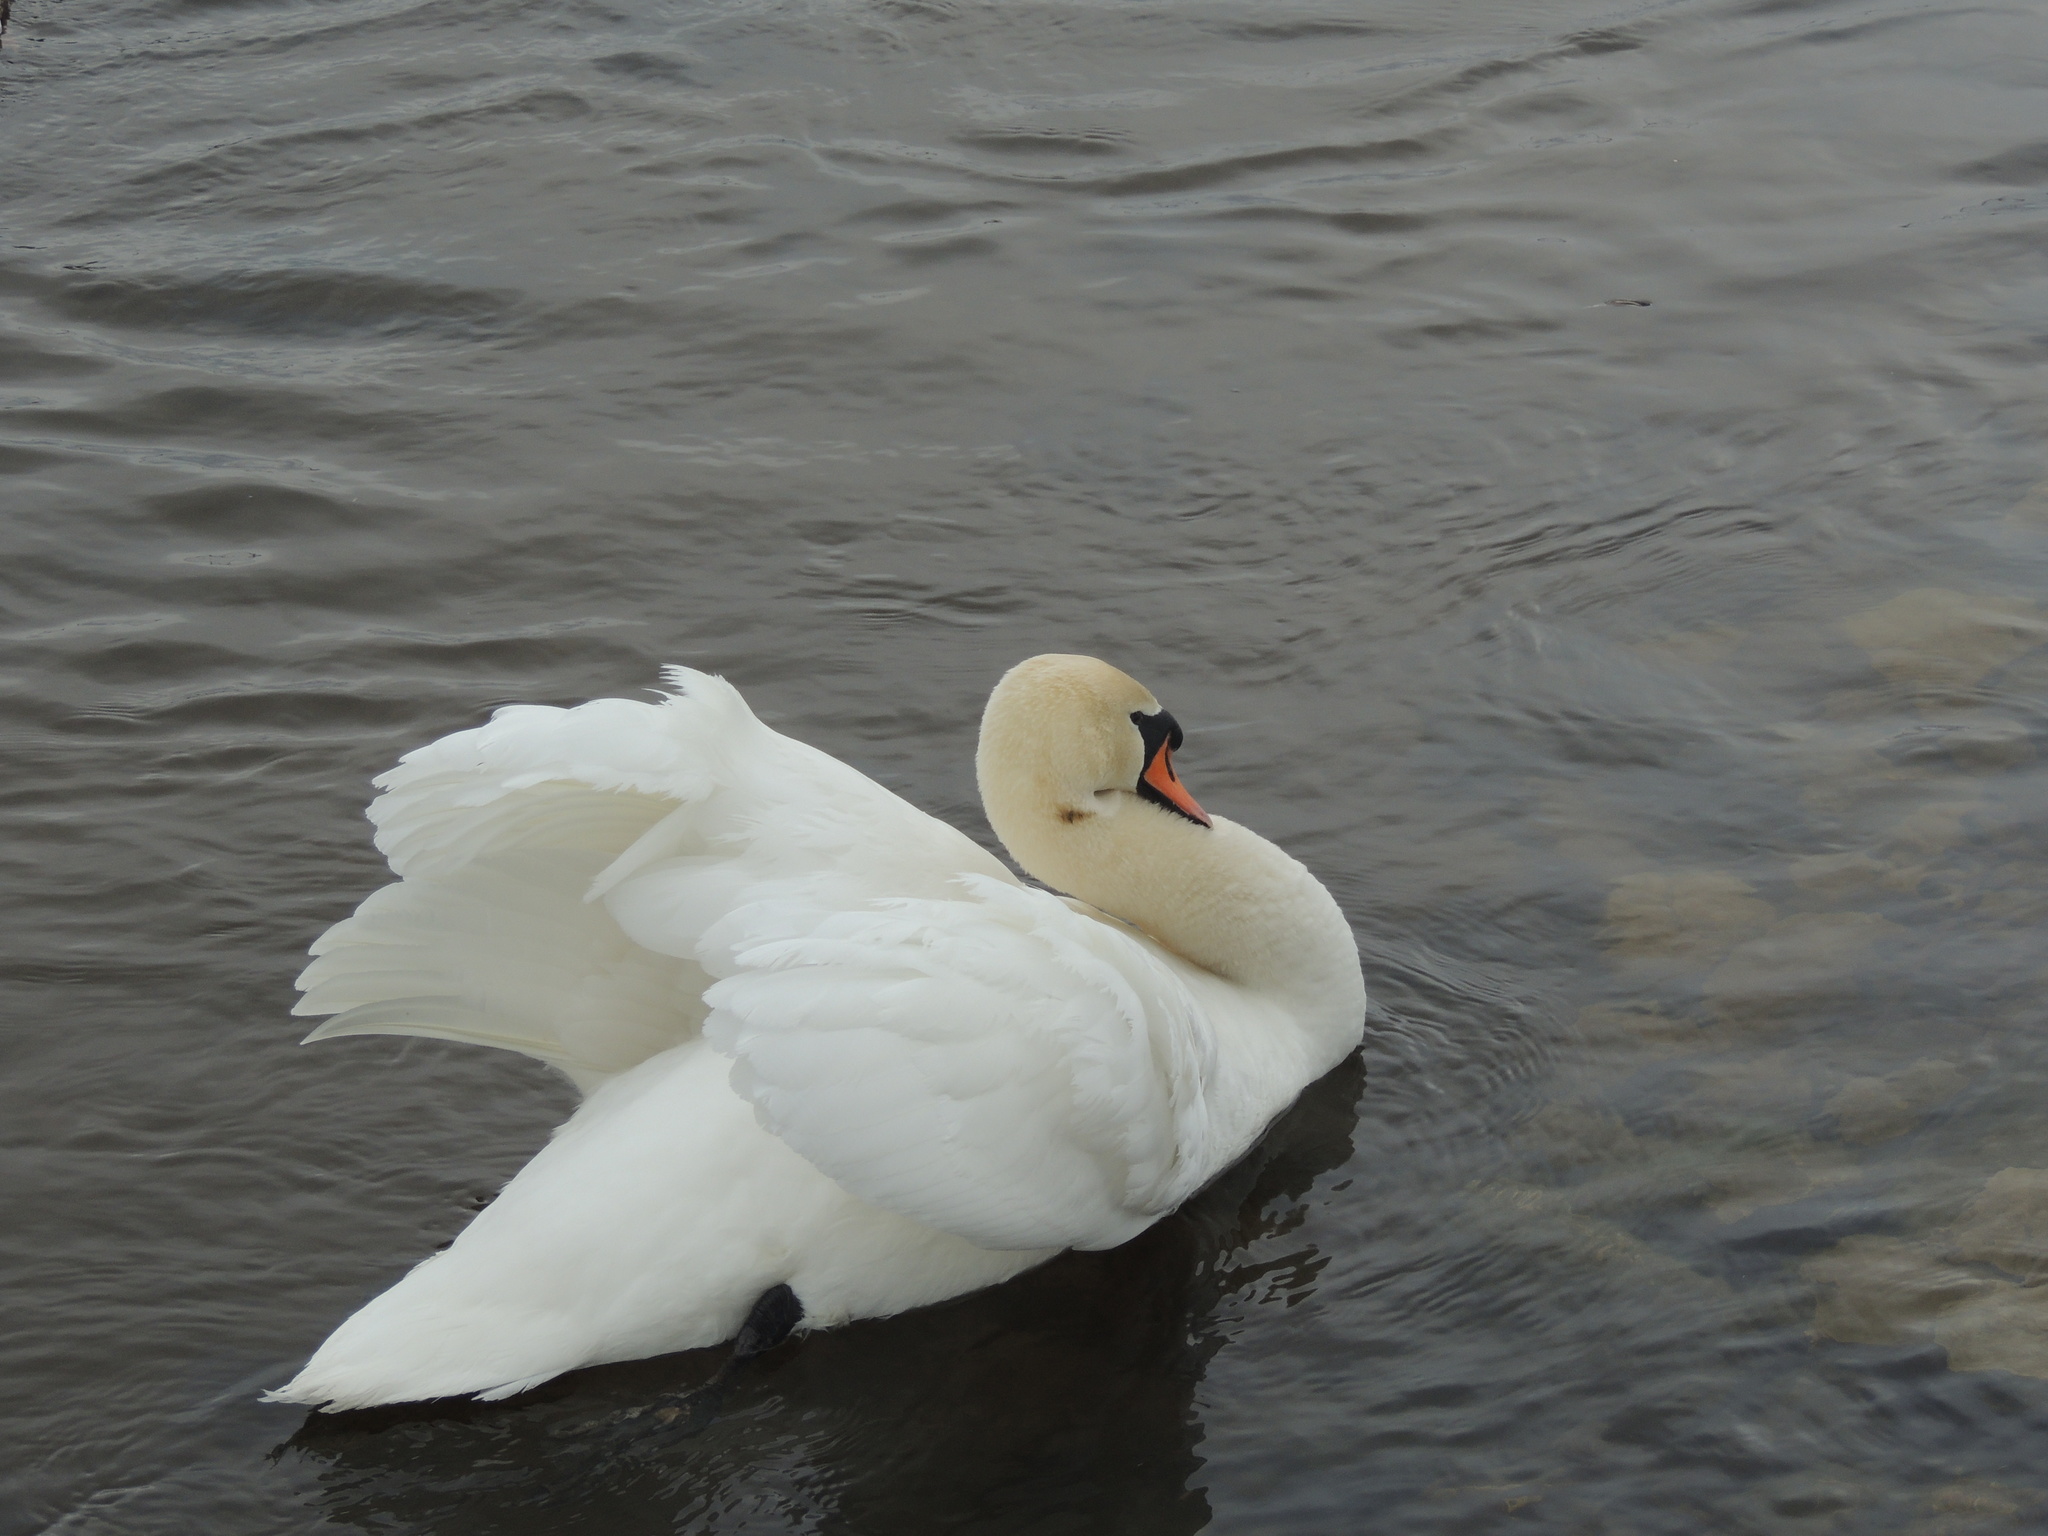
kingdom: Animalia
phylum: Chordata
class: Aves
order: Anseriformes
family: Anatidae
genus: Cygnus
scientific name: Cygnus olor
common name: Mute swan
